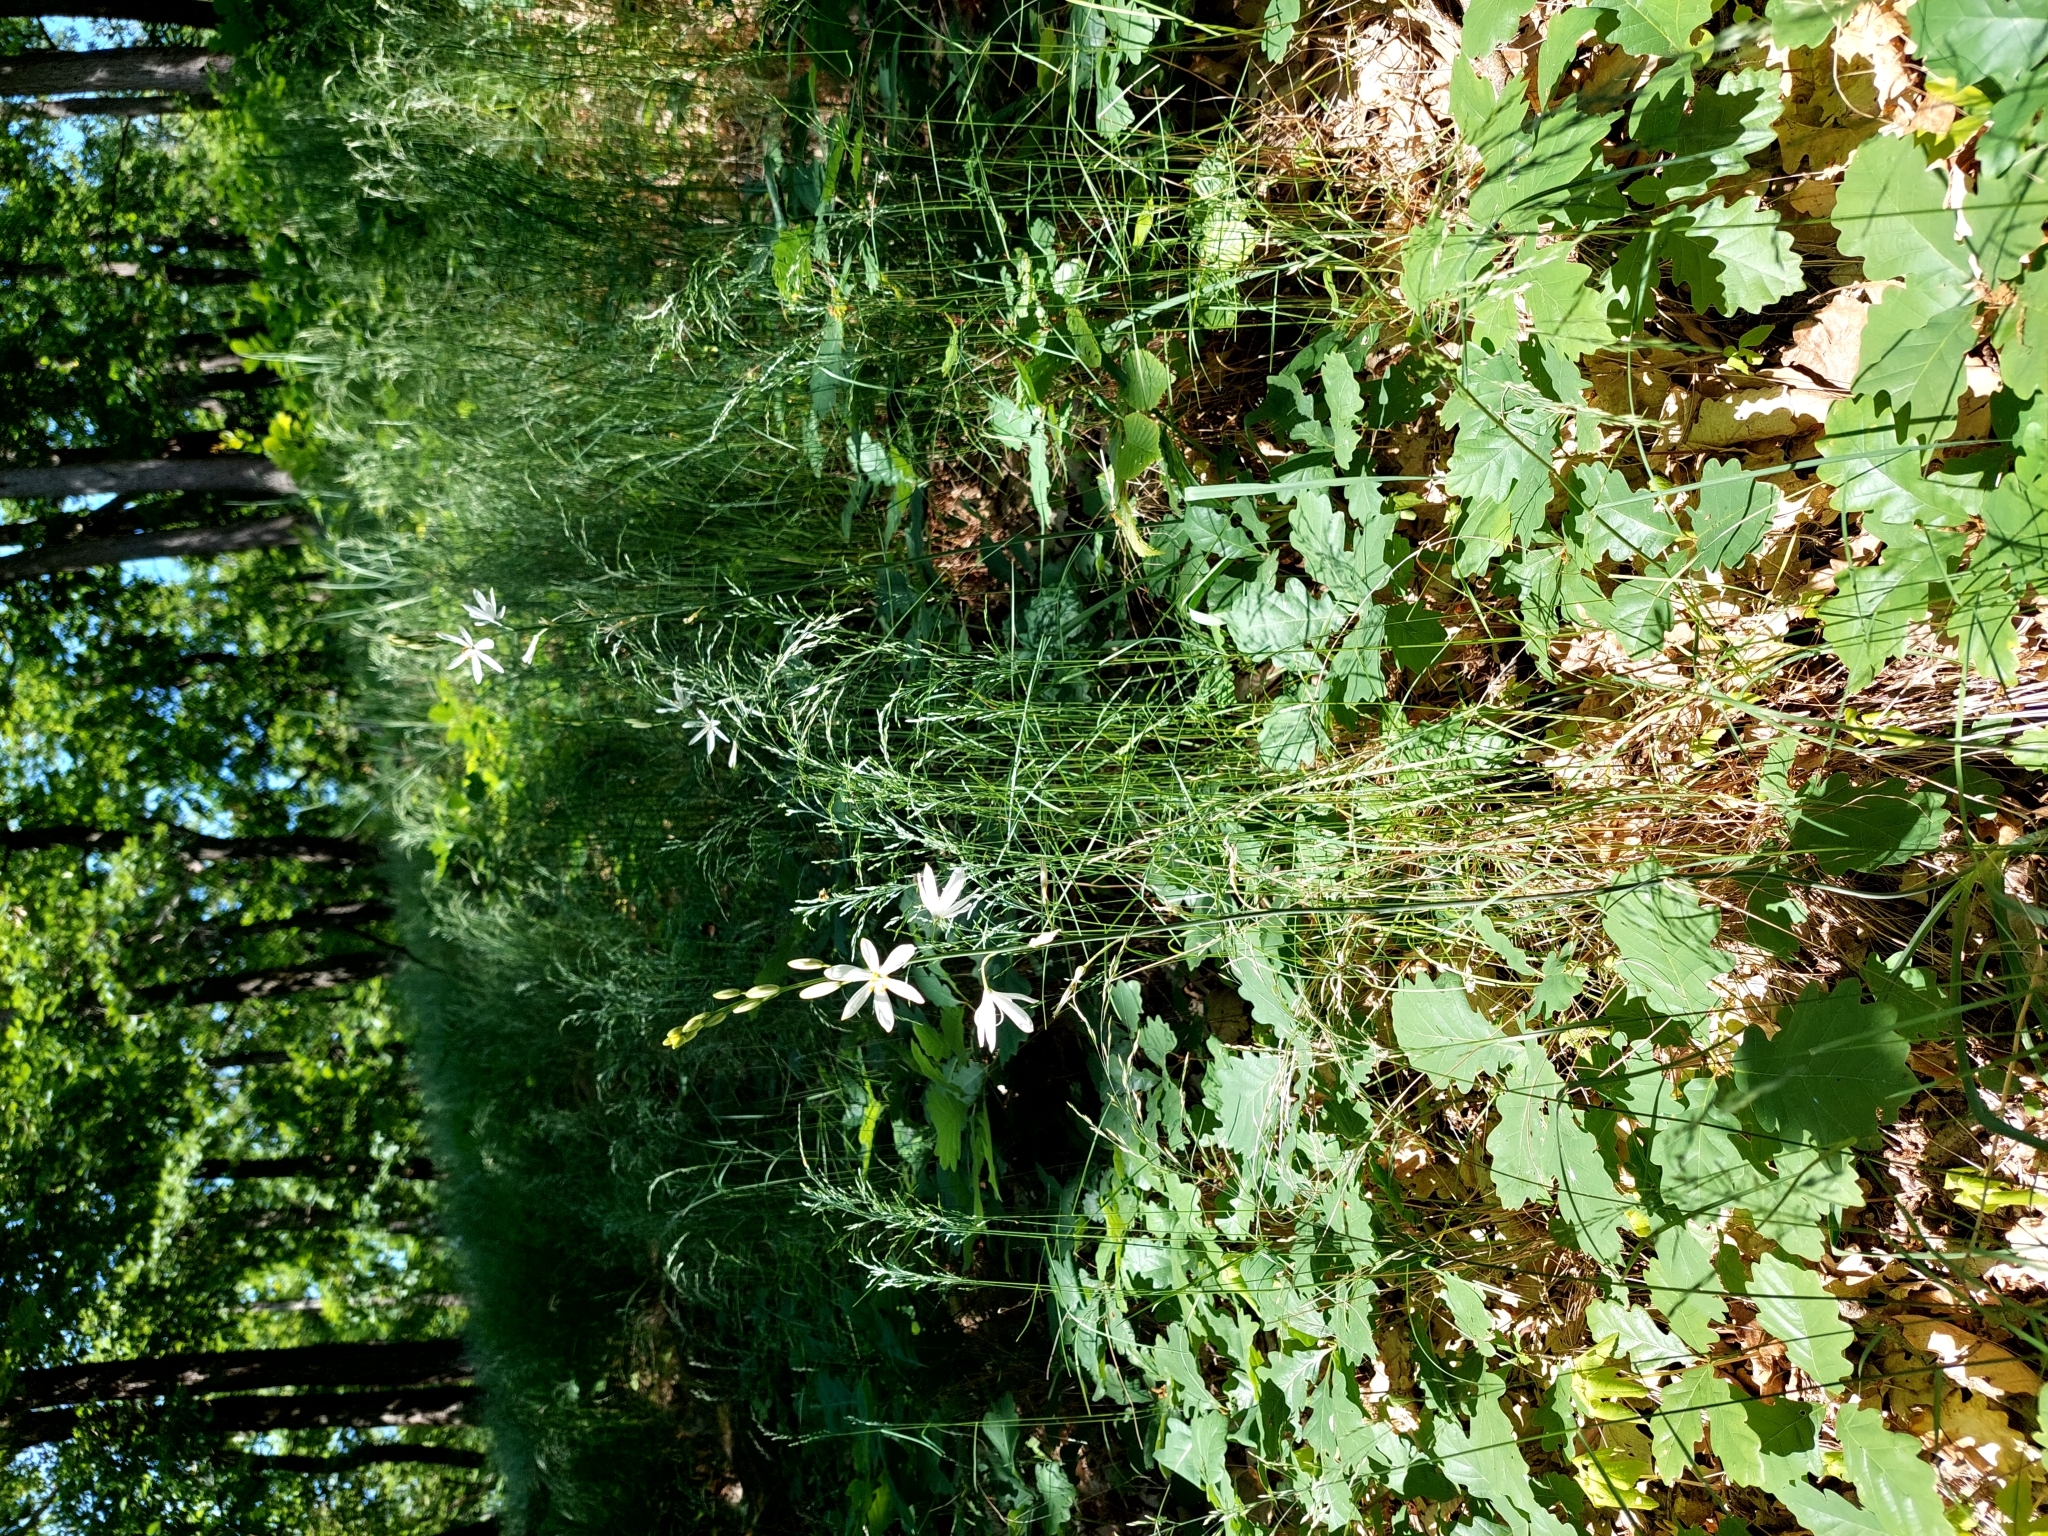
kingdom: Plantae
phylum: Tracheophyta
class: Liliopsida
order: Asparagales
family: Asparagaceae
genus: Anthericum
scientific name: Anthericum liliago
